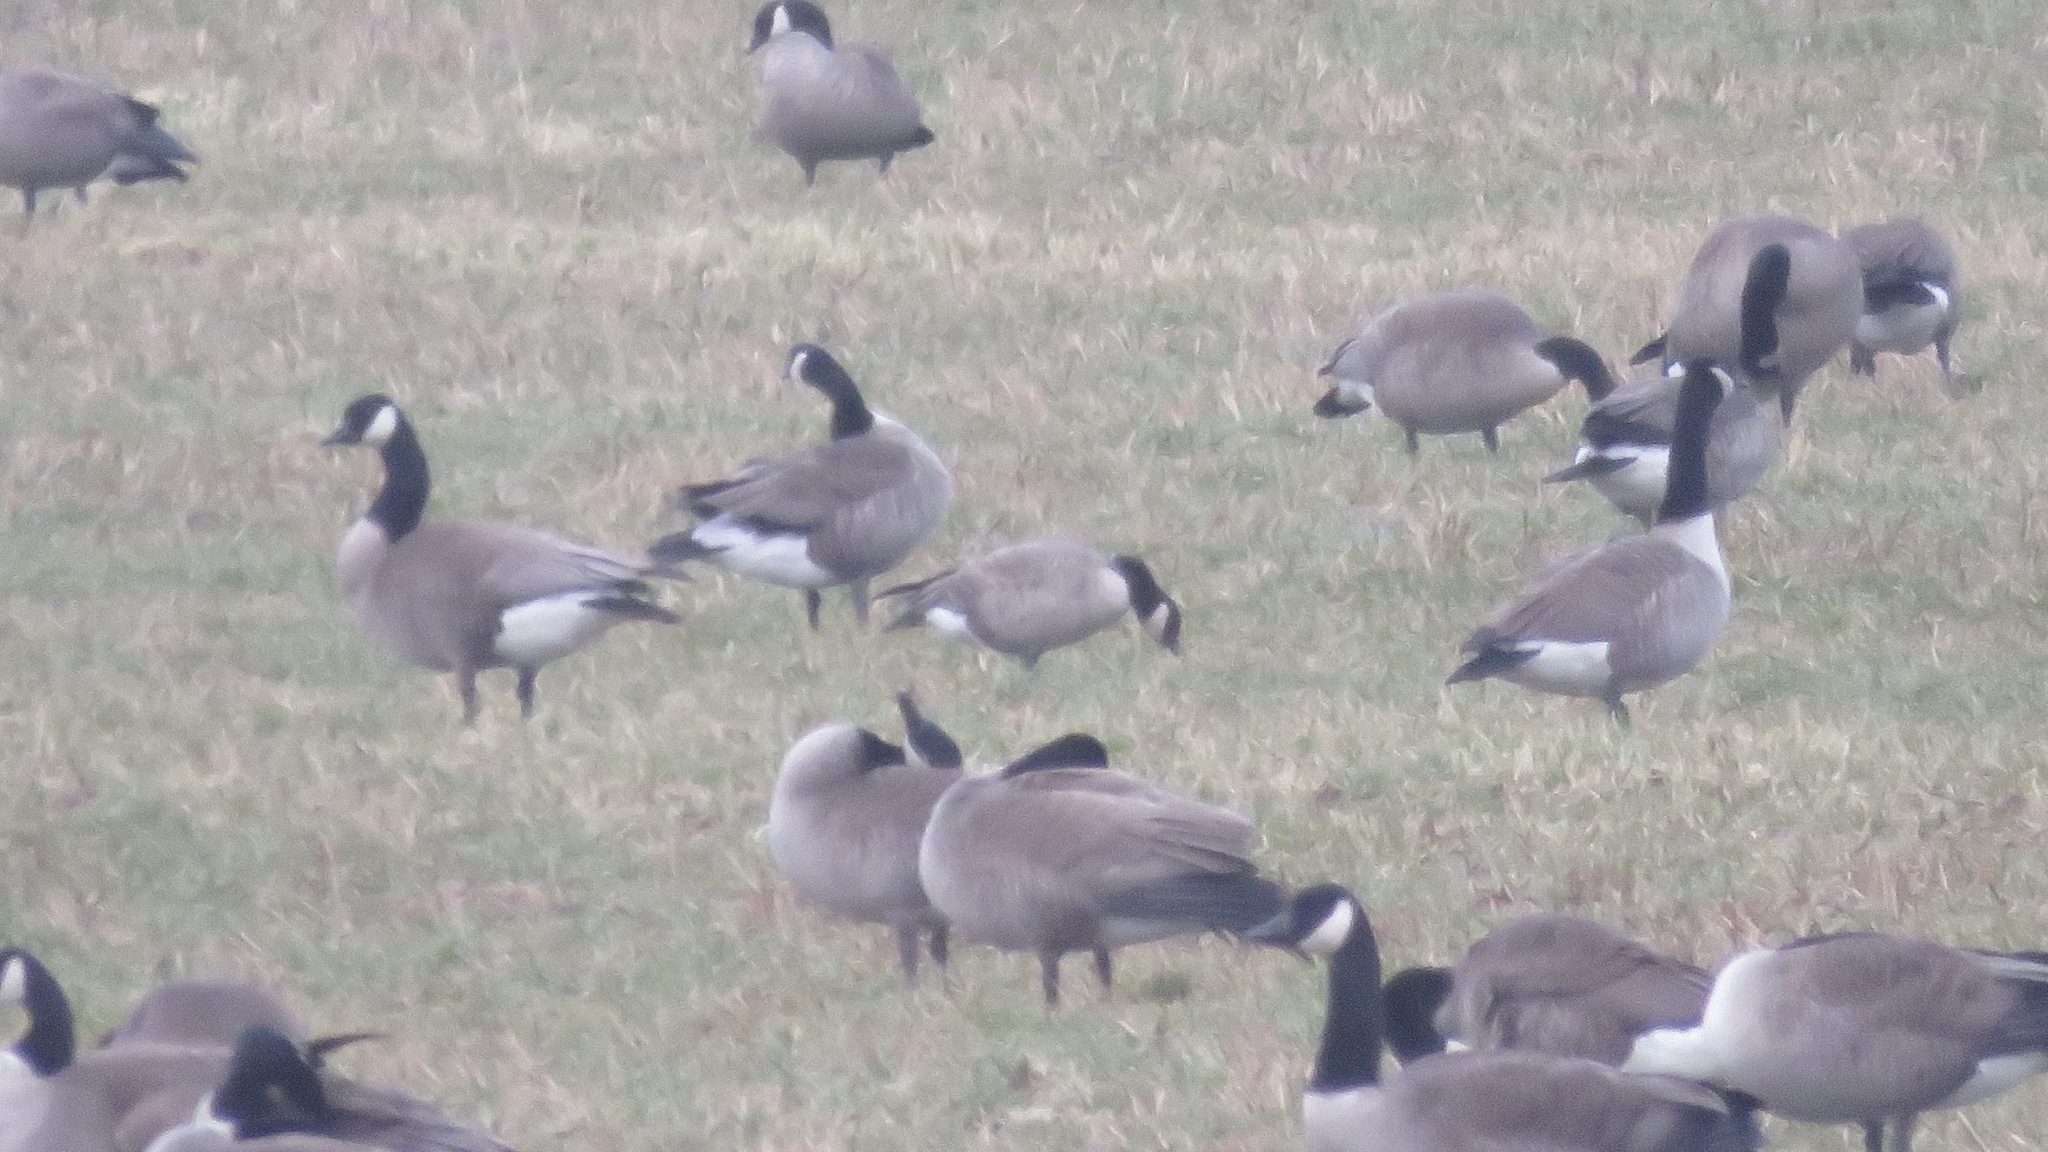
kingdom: Animalia
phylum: Chordata
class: Aves
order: Anseriformes
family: Anatidae
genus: Branta
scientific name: Branta hutchinsii
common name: Cackling goose
